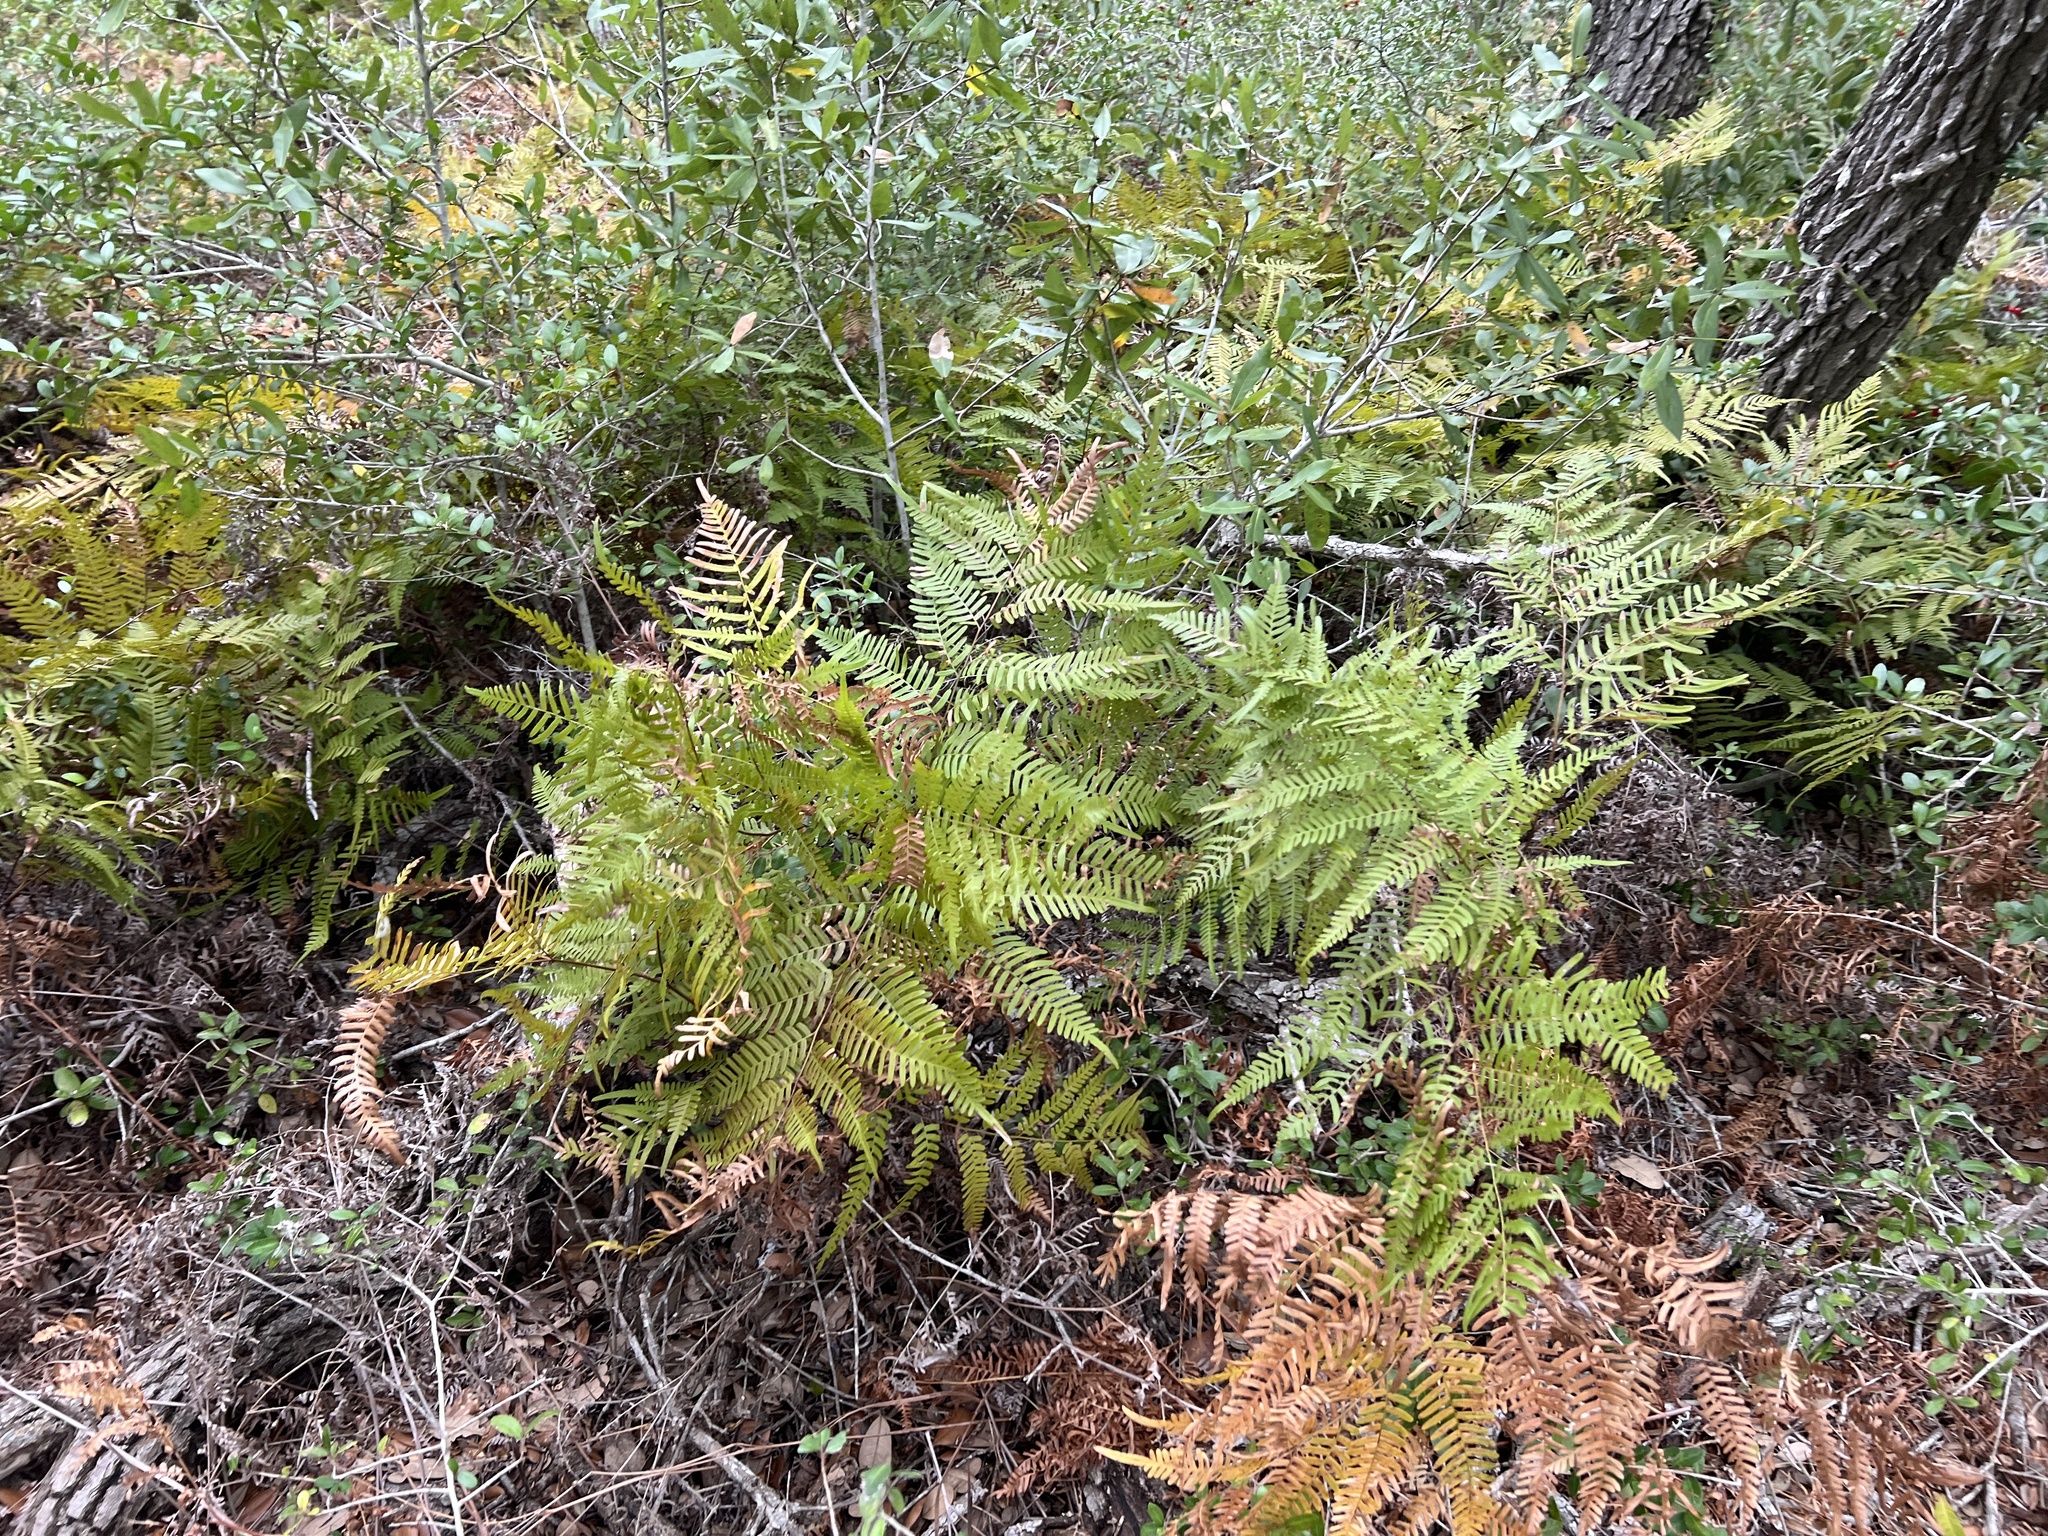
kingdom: Plantae
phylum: Tracheophyta
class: Polypodiopsida
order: Polypodiales
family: Dennstaedtiaceae
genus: Pteridium
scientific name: Pteridium aquilinum
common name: Bracken
